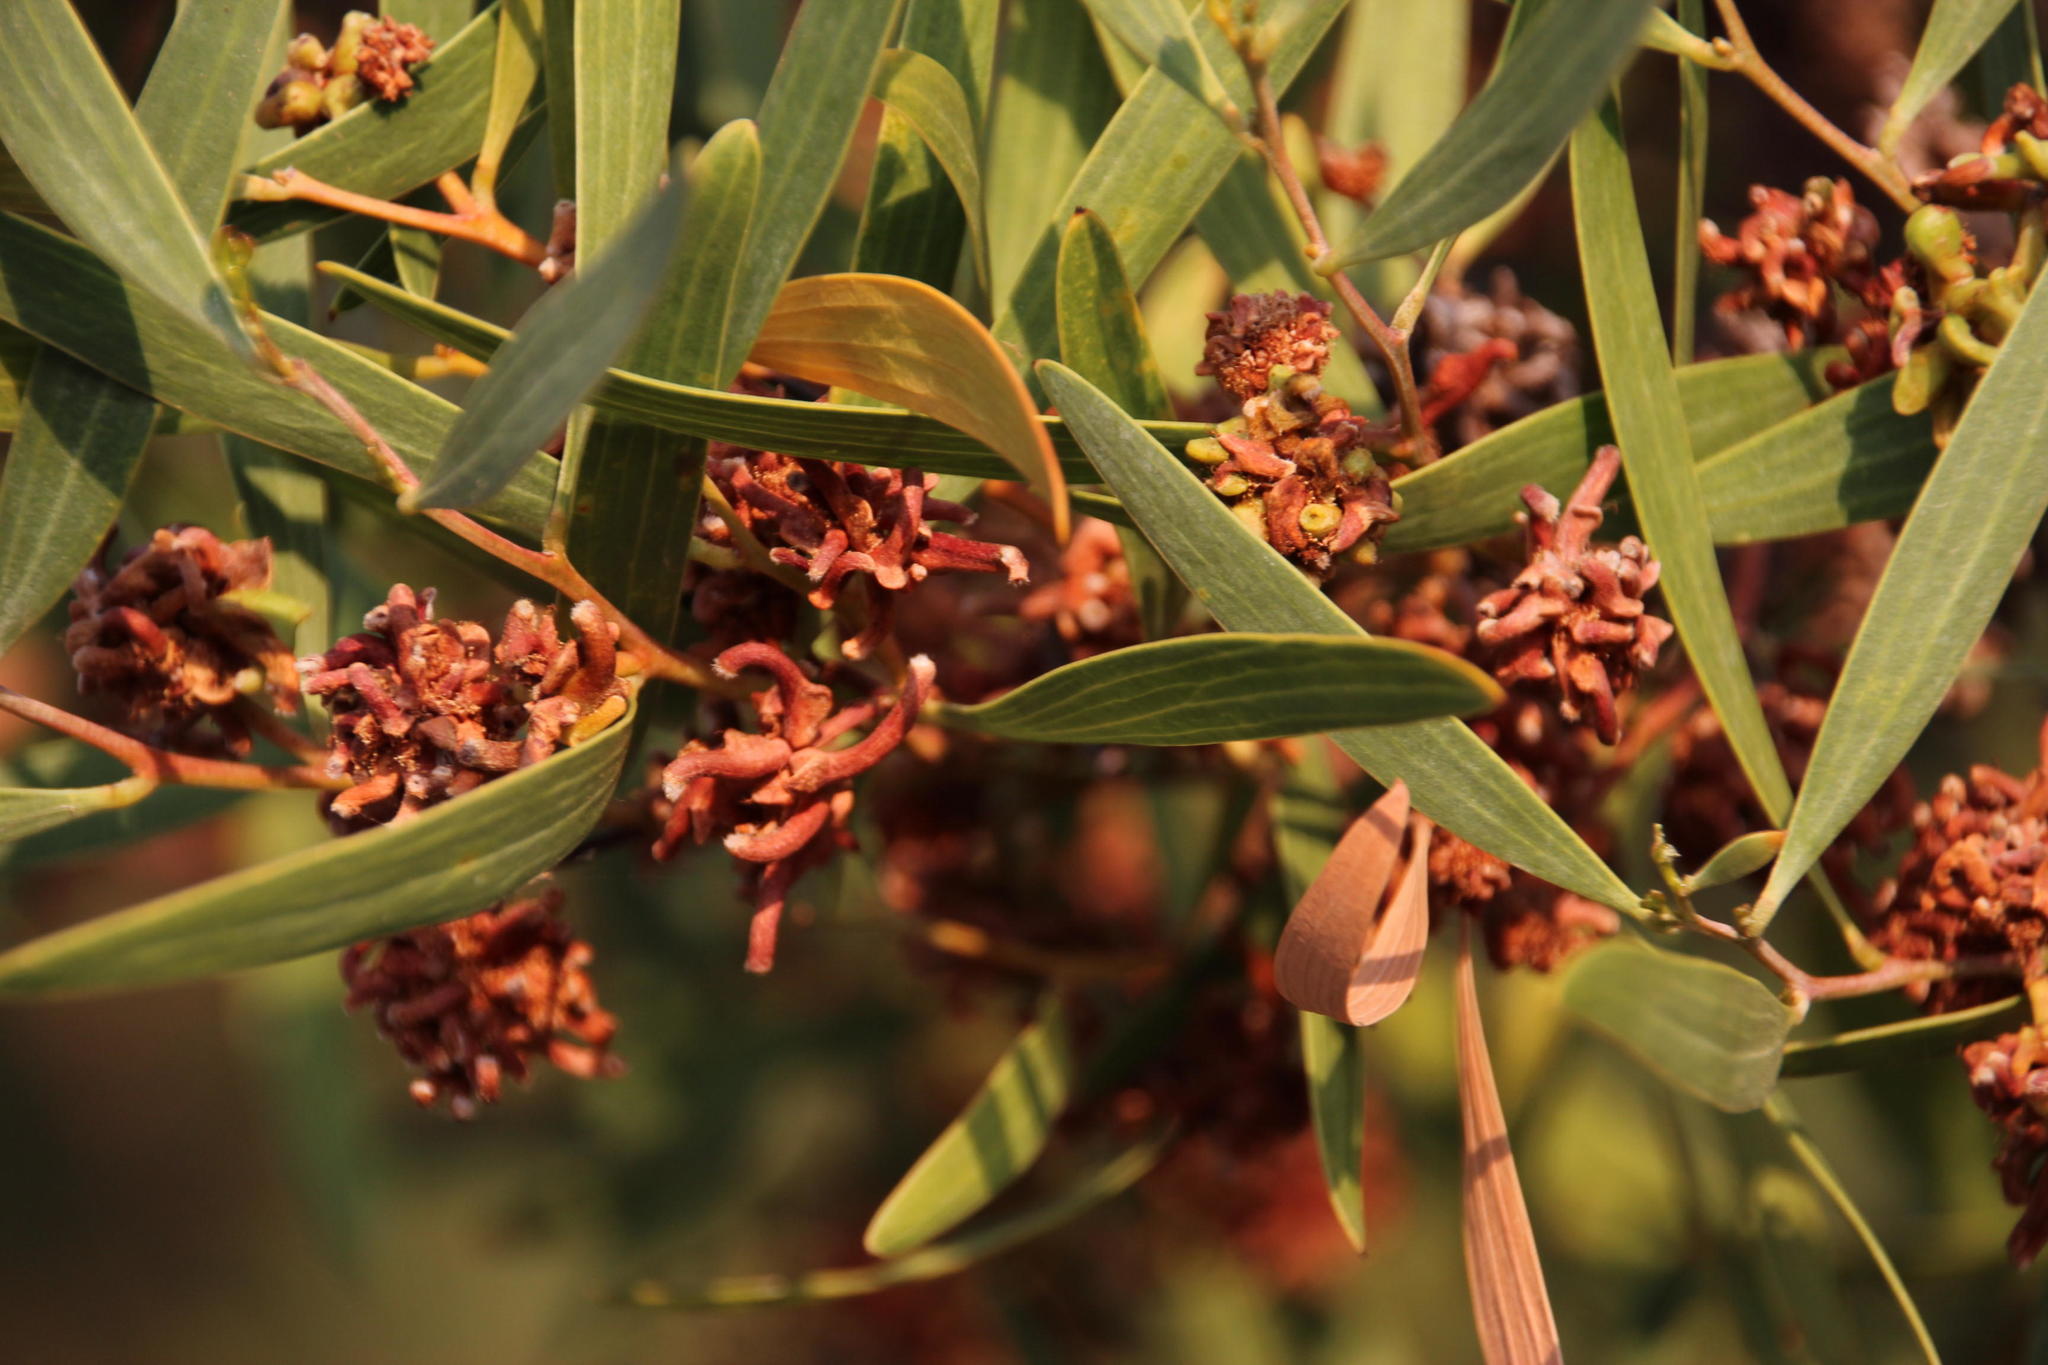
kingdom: Animalia
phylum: Arthropoda
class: Insecta
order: Diptera
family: Cecidomyiidae
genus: Dasineura
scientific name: Dasineura dielsi
